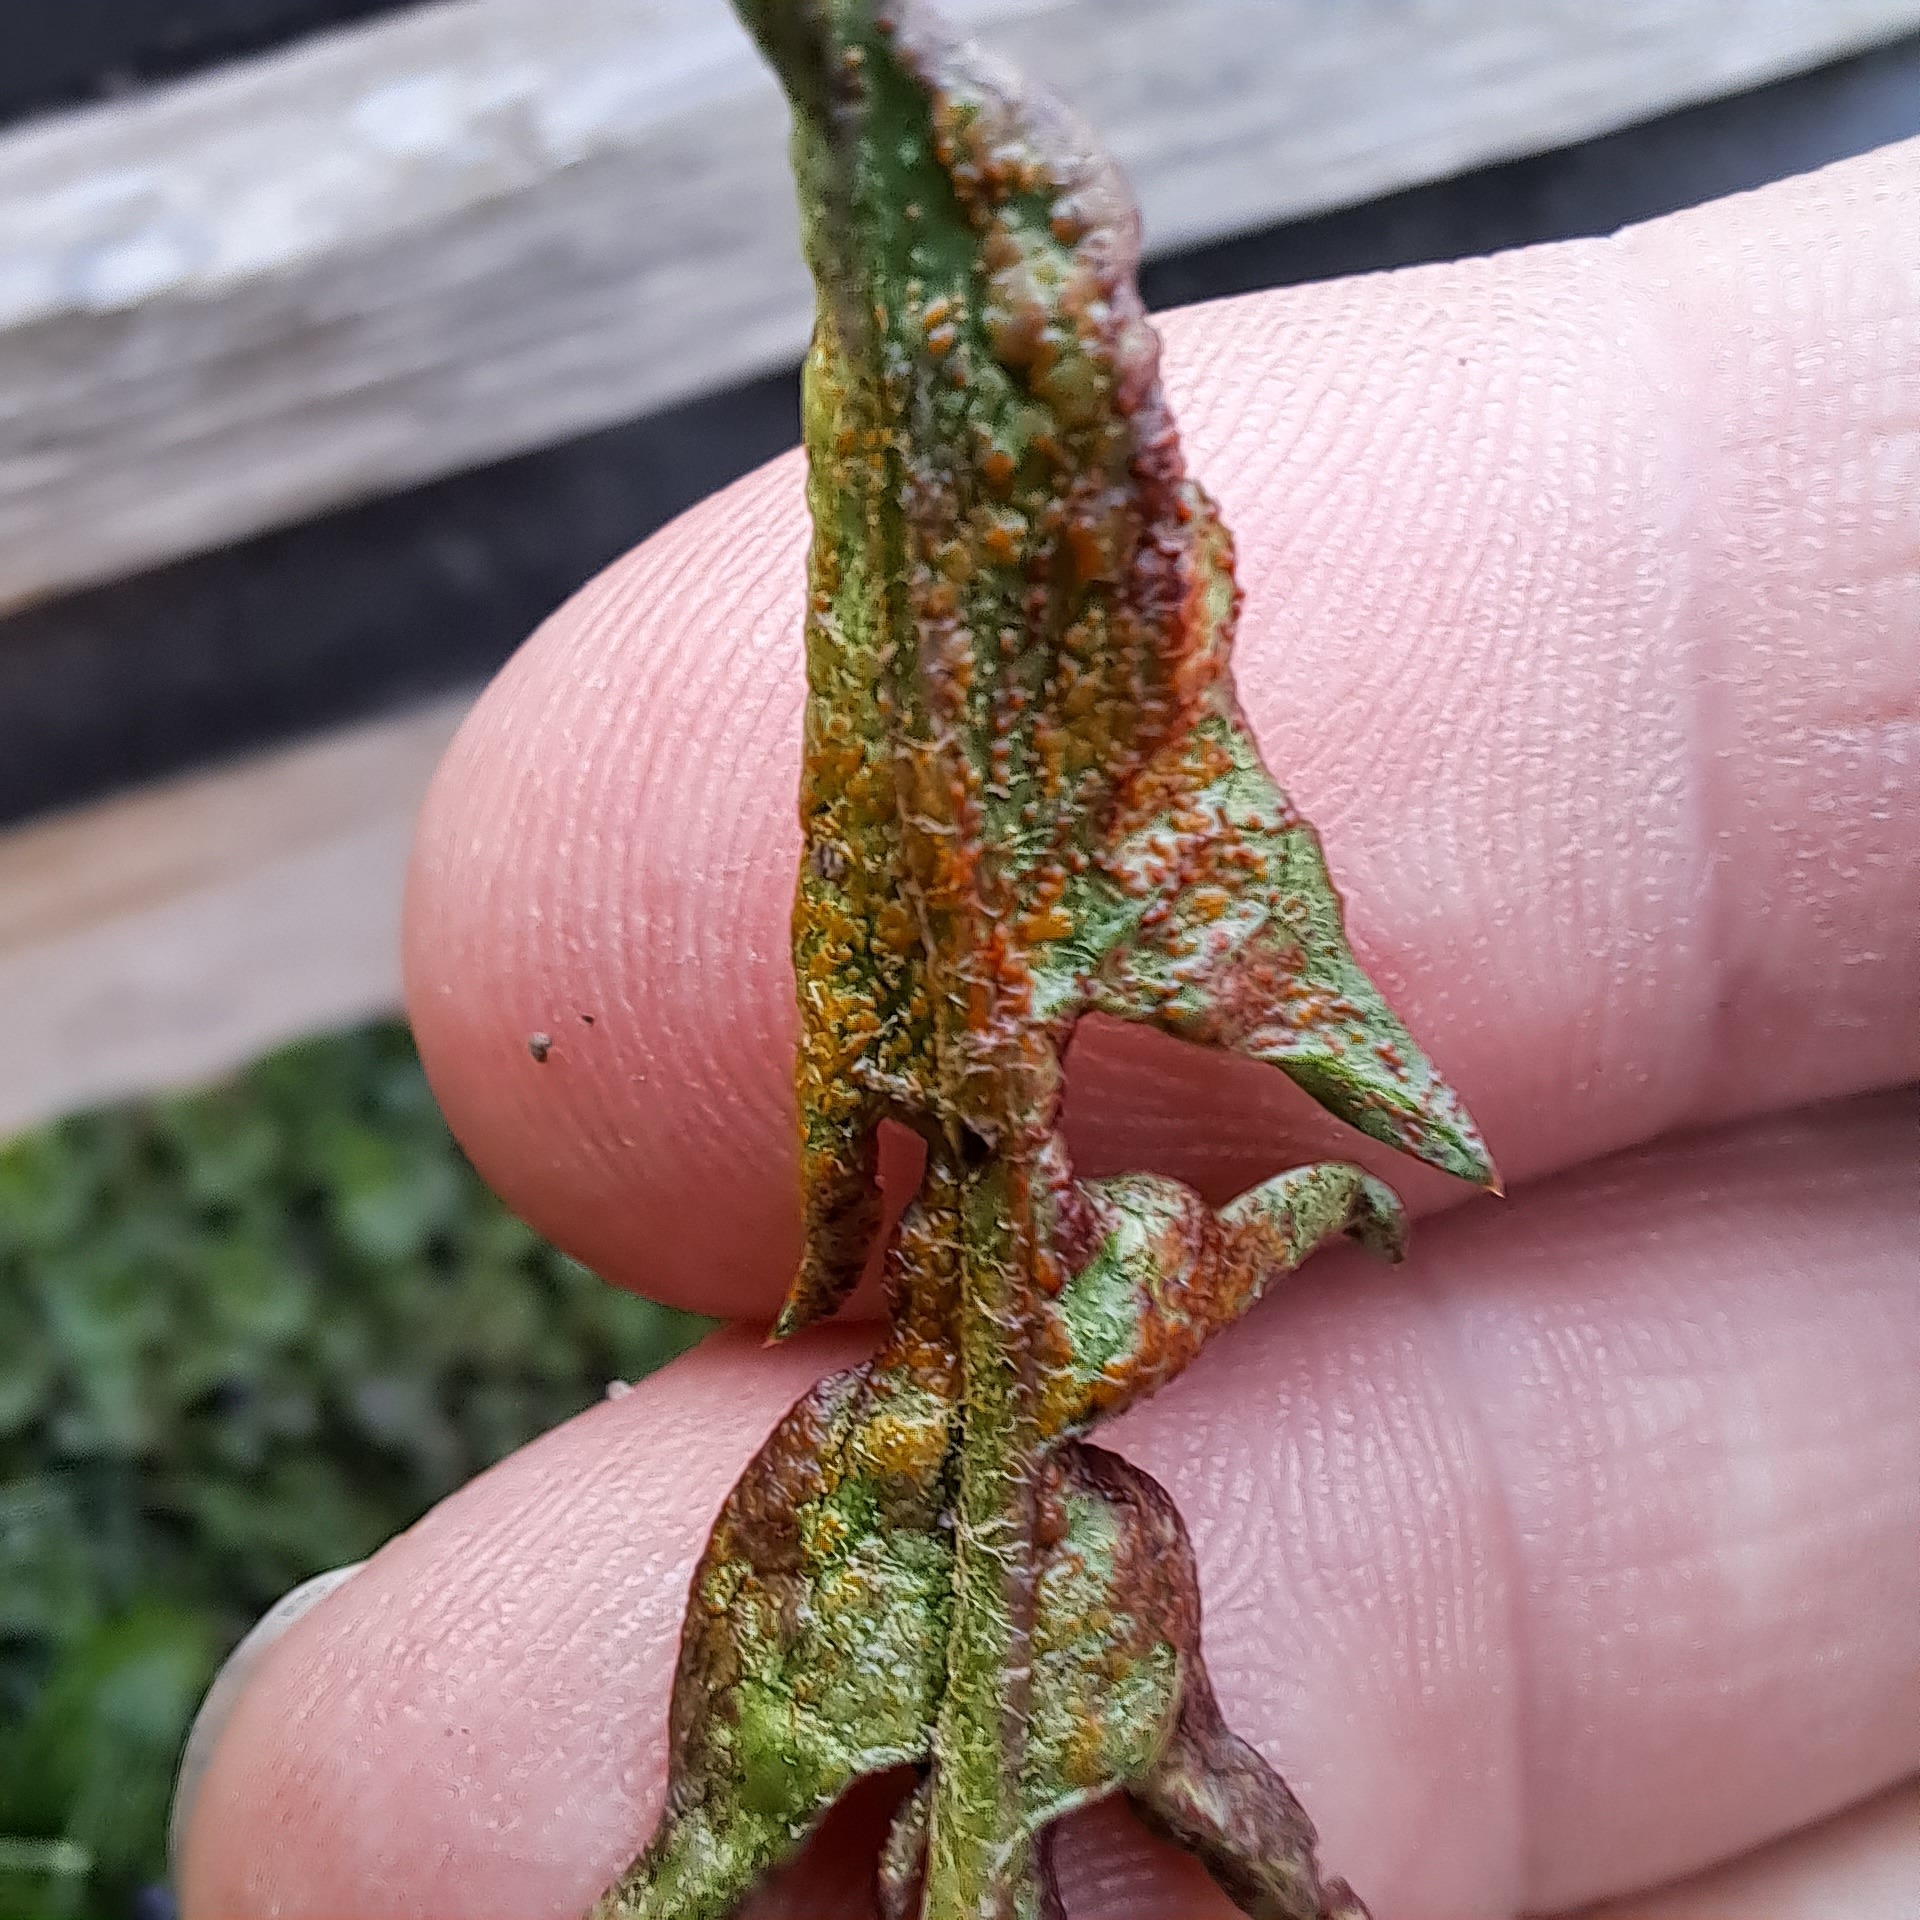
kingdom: Fungi
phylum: Chytridiomycota
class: Chytridiomycetes
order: Chytridiales
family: Synchytriaceae
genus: Synchytrium
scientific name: Synchytrium taraxaci
